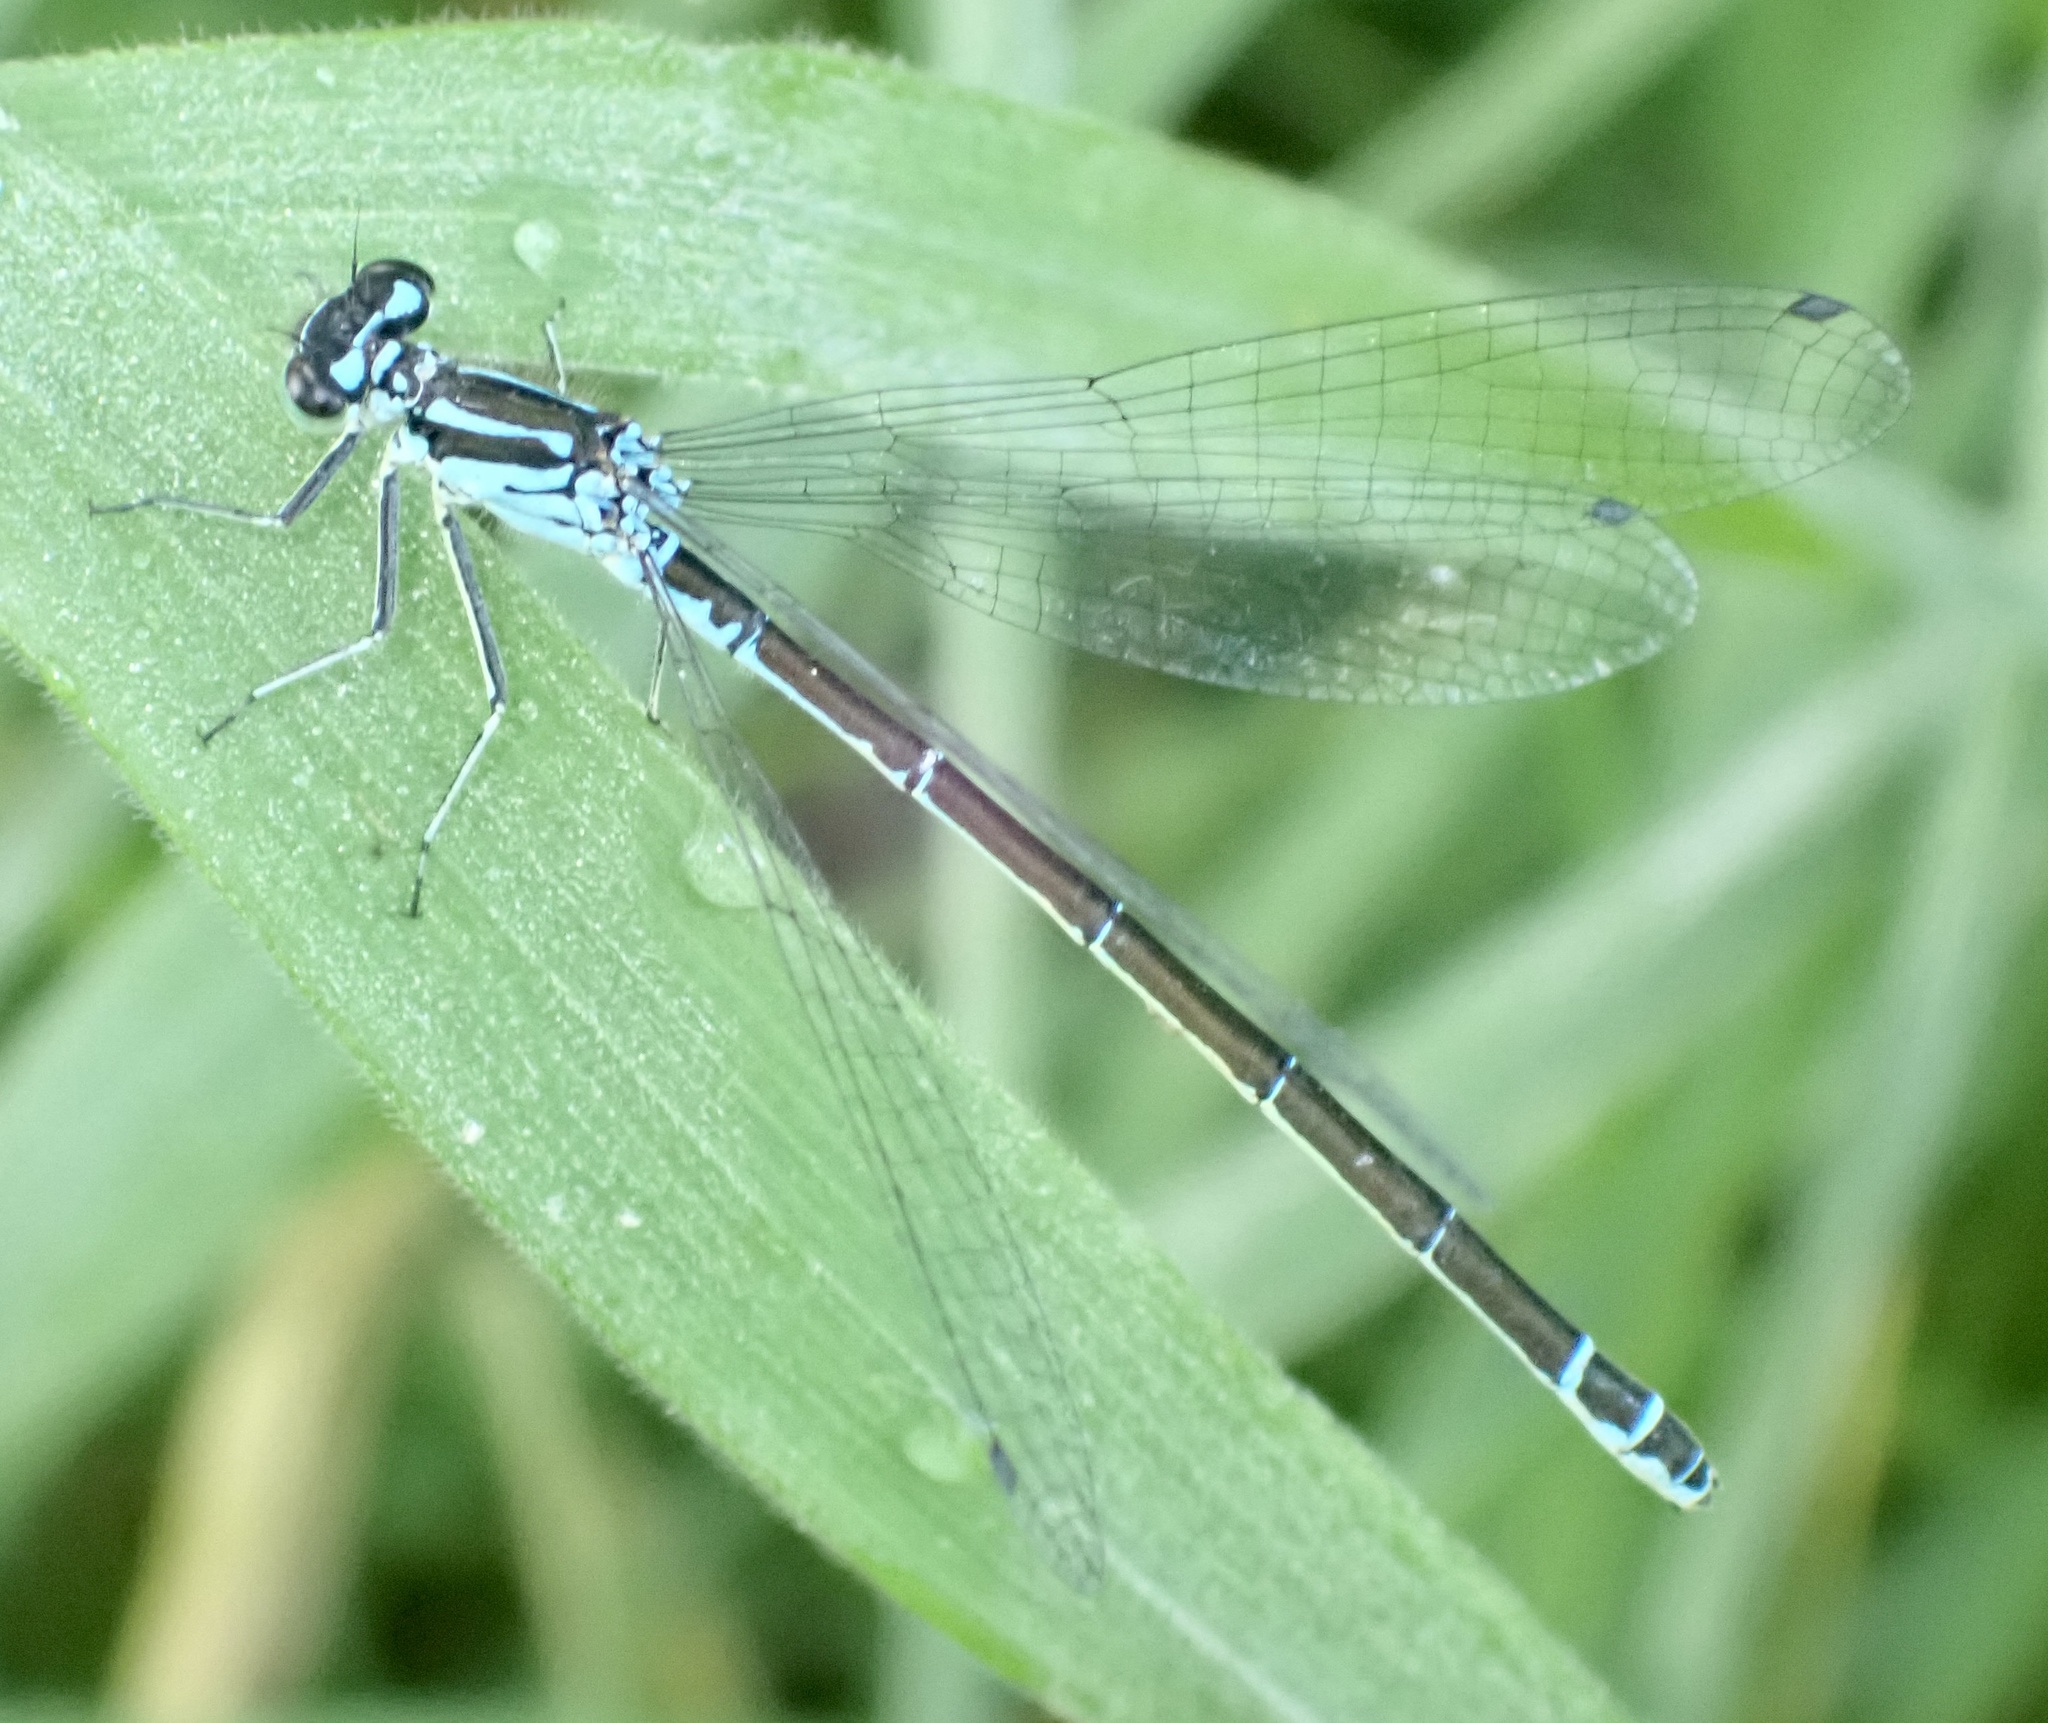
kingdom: Animalia
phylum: Arthropoda
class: Insecta
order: Odonata
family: Coenagrionidae
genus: Coenagrion
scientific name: Coenagrion pulchellum
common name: Variable bluet
